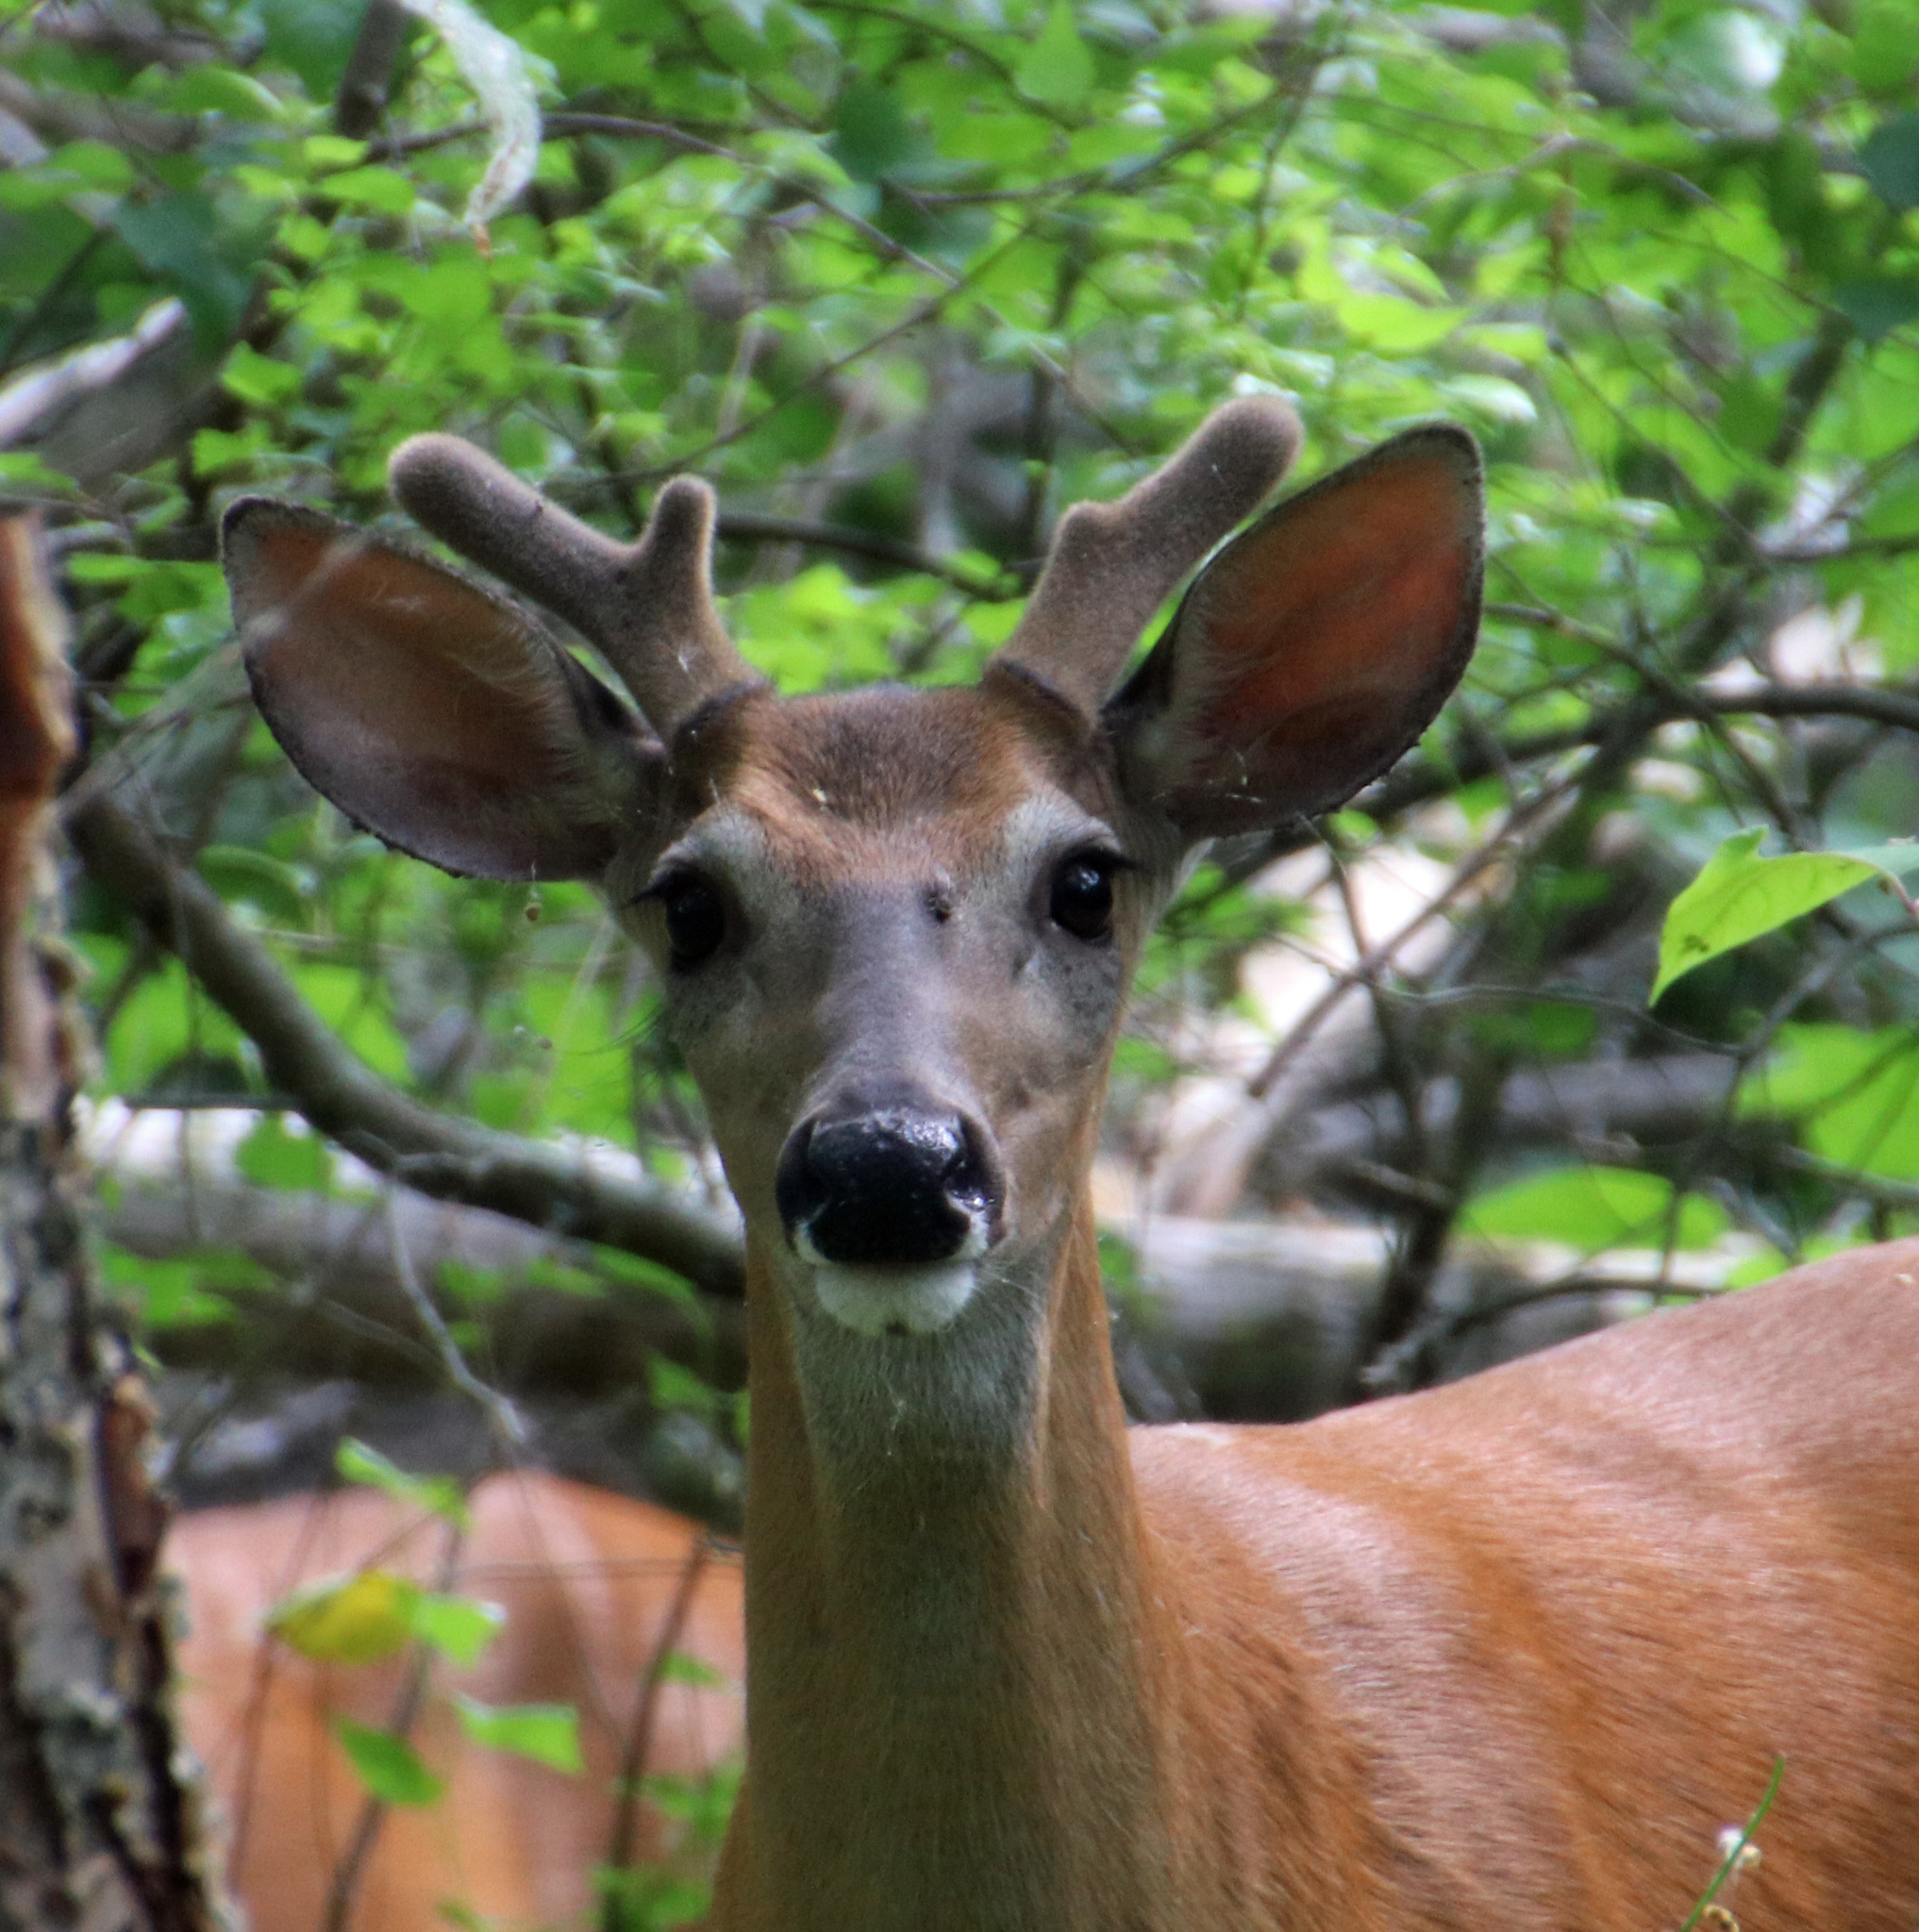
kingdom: Animalia
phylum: Chordata
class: Mammalia
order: Artiodactyla
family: Cervidae
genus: Odocoileus
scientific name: Odocoileus virginianus
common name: White-tailed deer
